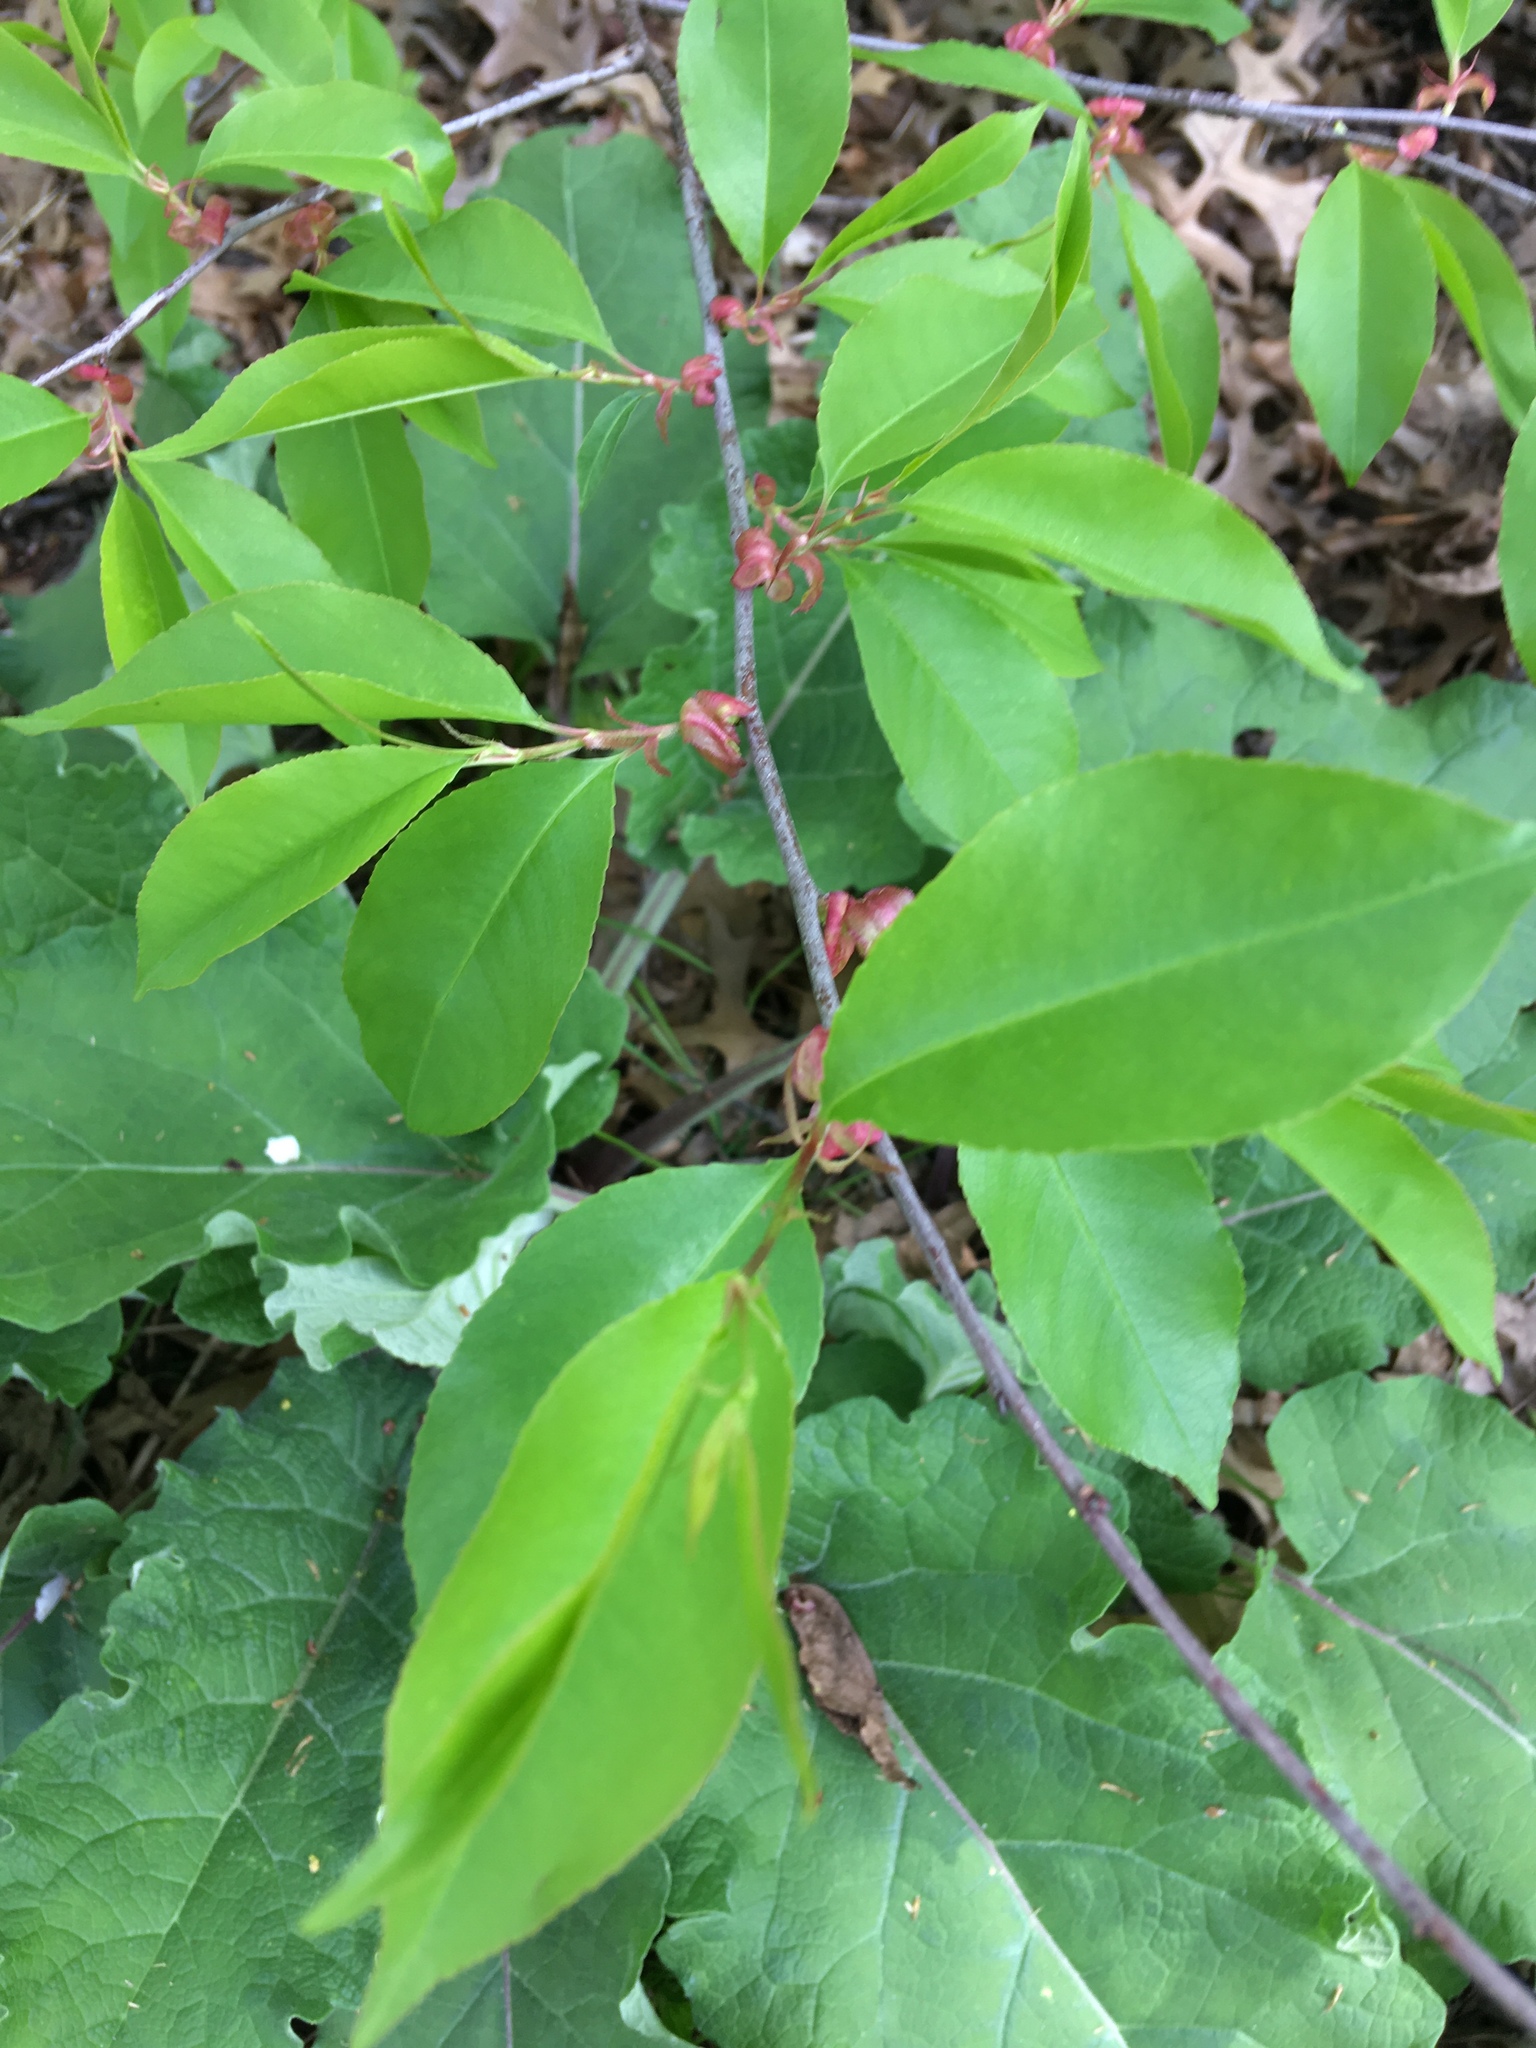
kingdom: Plantae
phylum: Tracheophyta
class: Magnoliopsida
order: Rosales
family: Rosaceae
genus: Prunus
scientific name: Prunus serotina
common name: Black cherry
